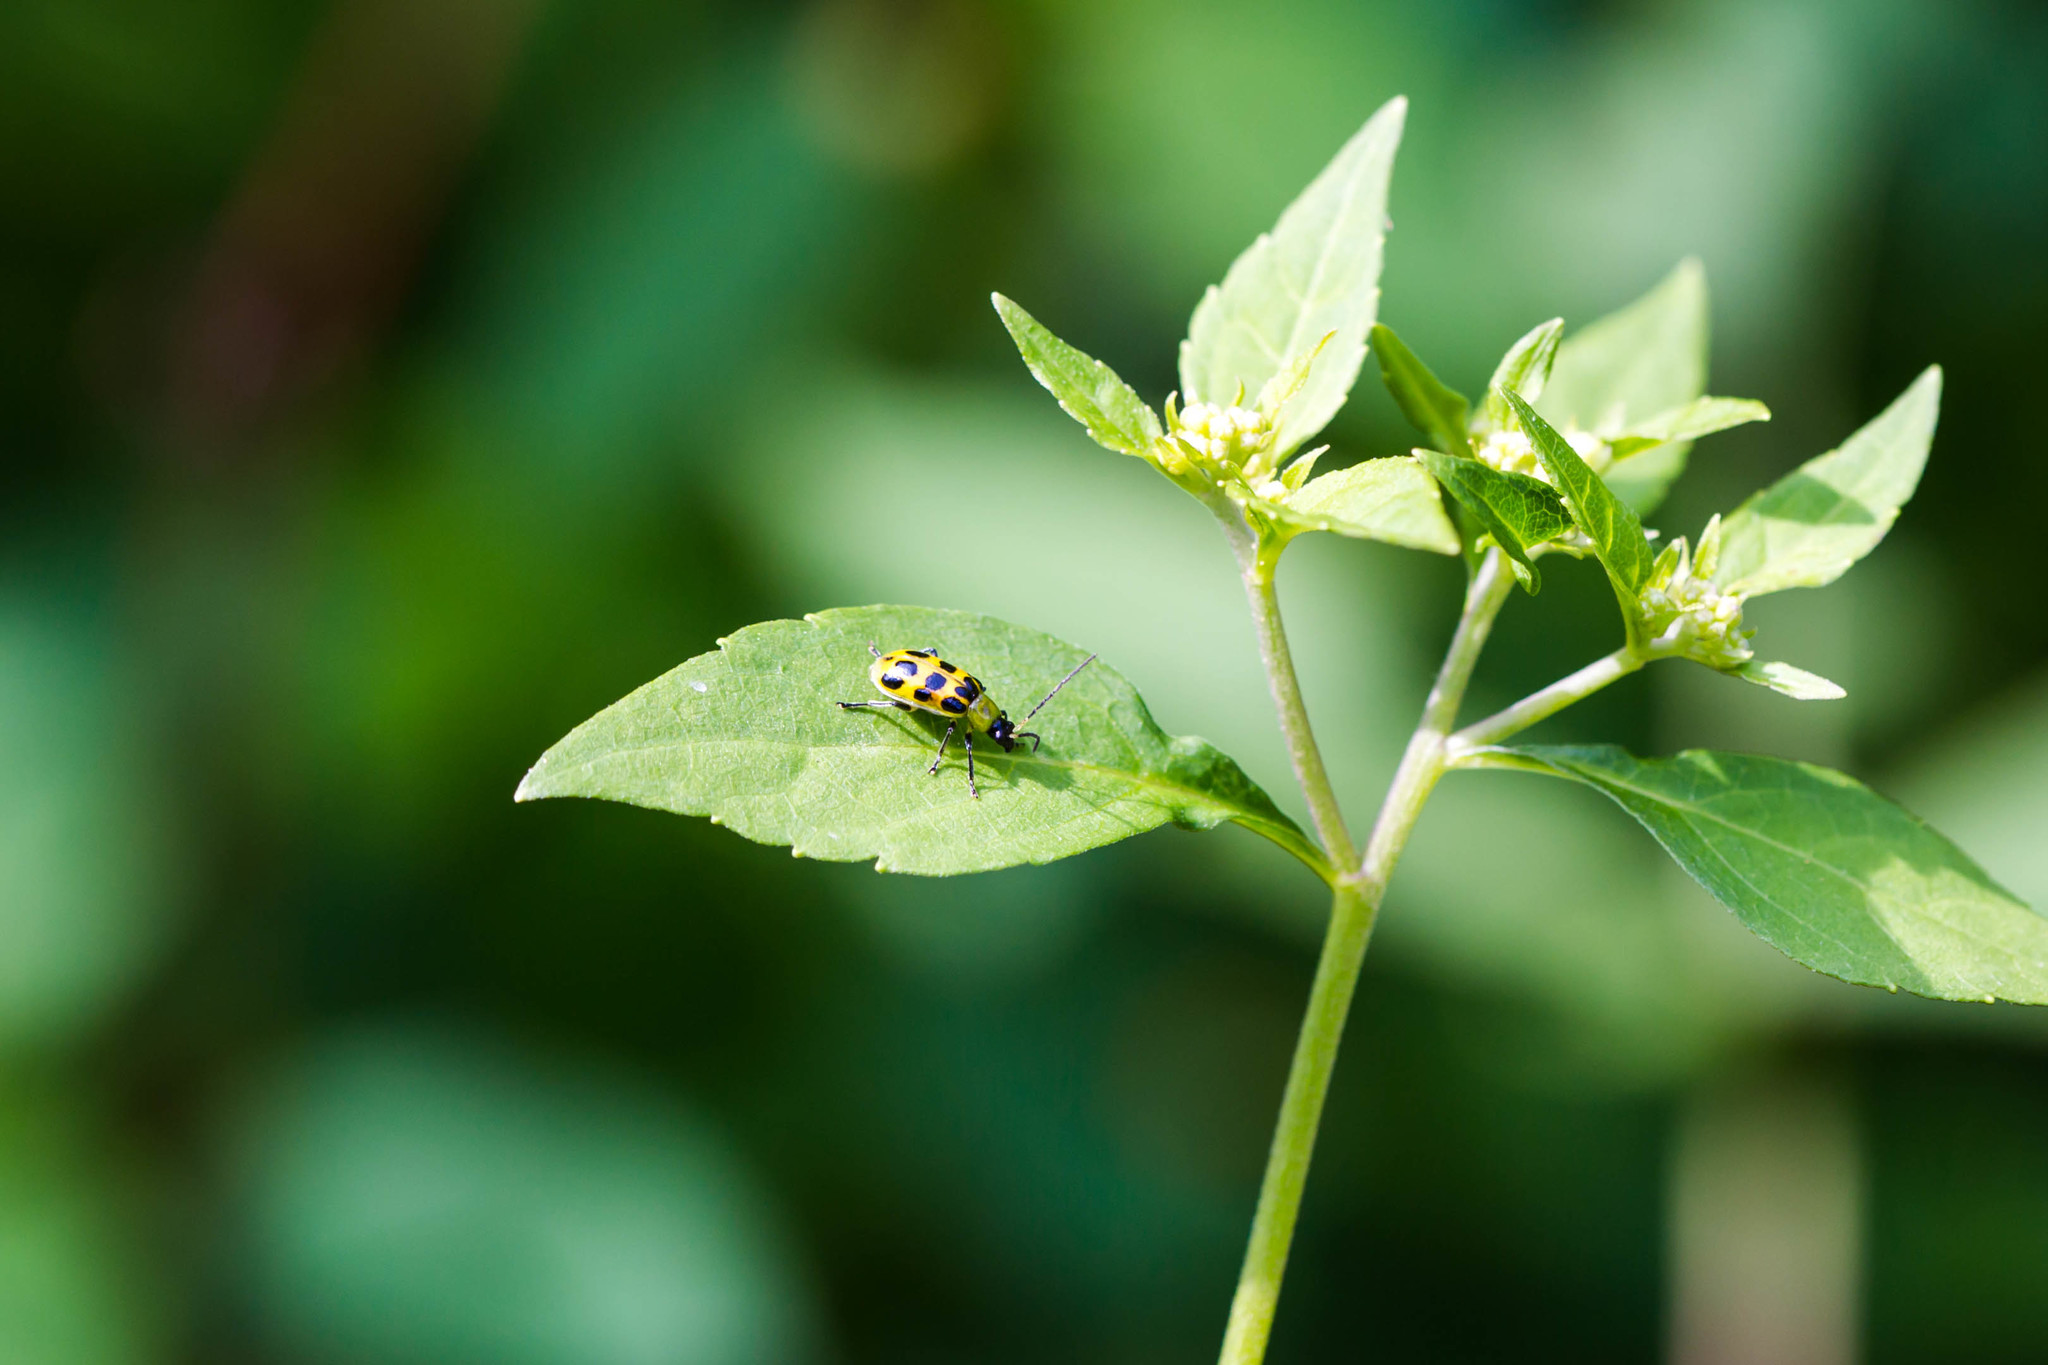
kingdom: Animalia
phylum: Arthropoda
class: Insecta
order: Coleoptera
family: Chrysomelidae
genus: Diabrotica
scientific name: Diabrotica undecimpunctata
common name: Spotted cucumber beetle
